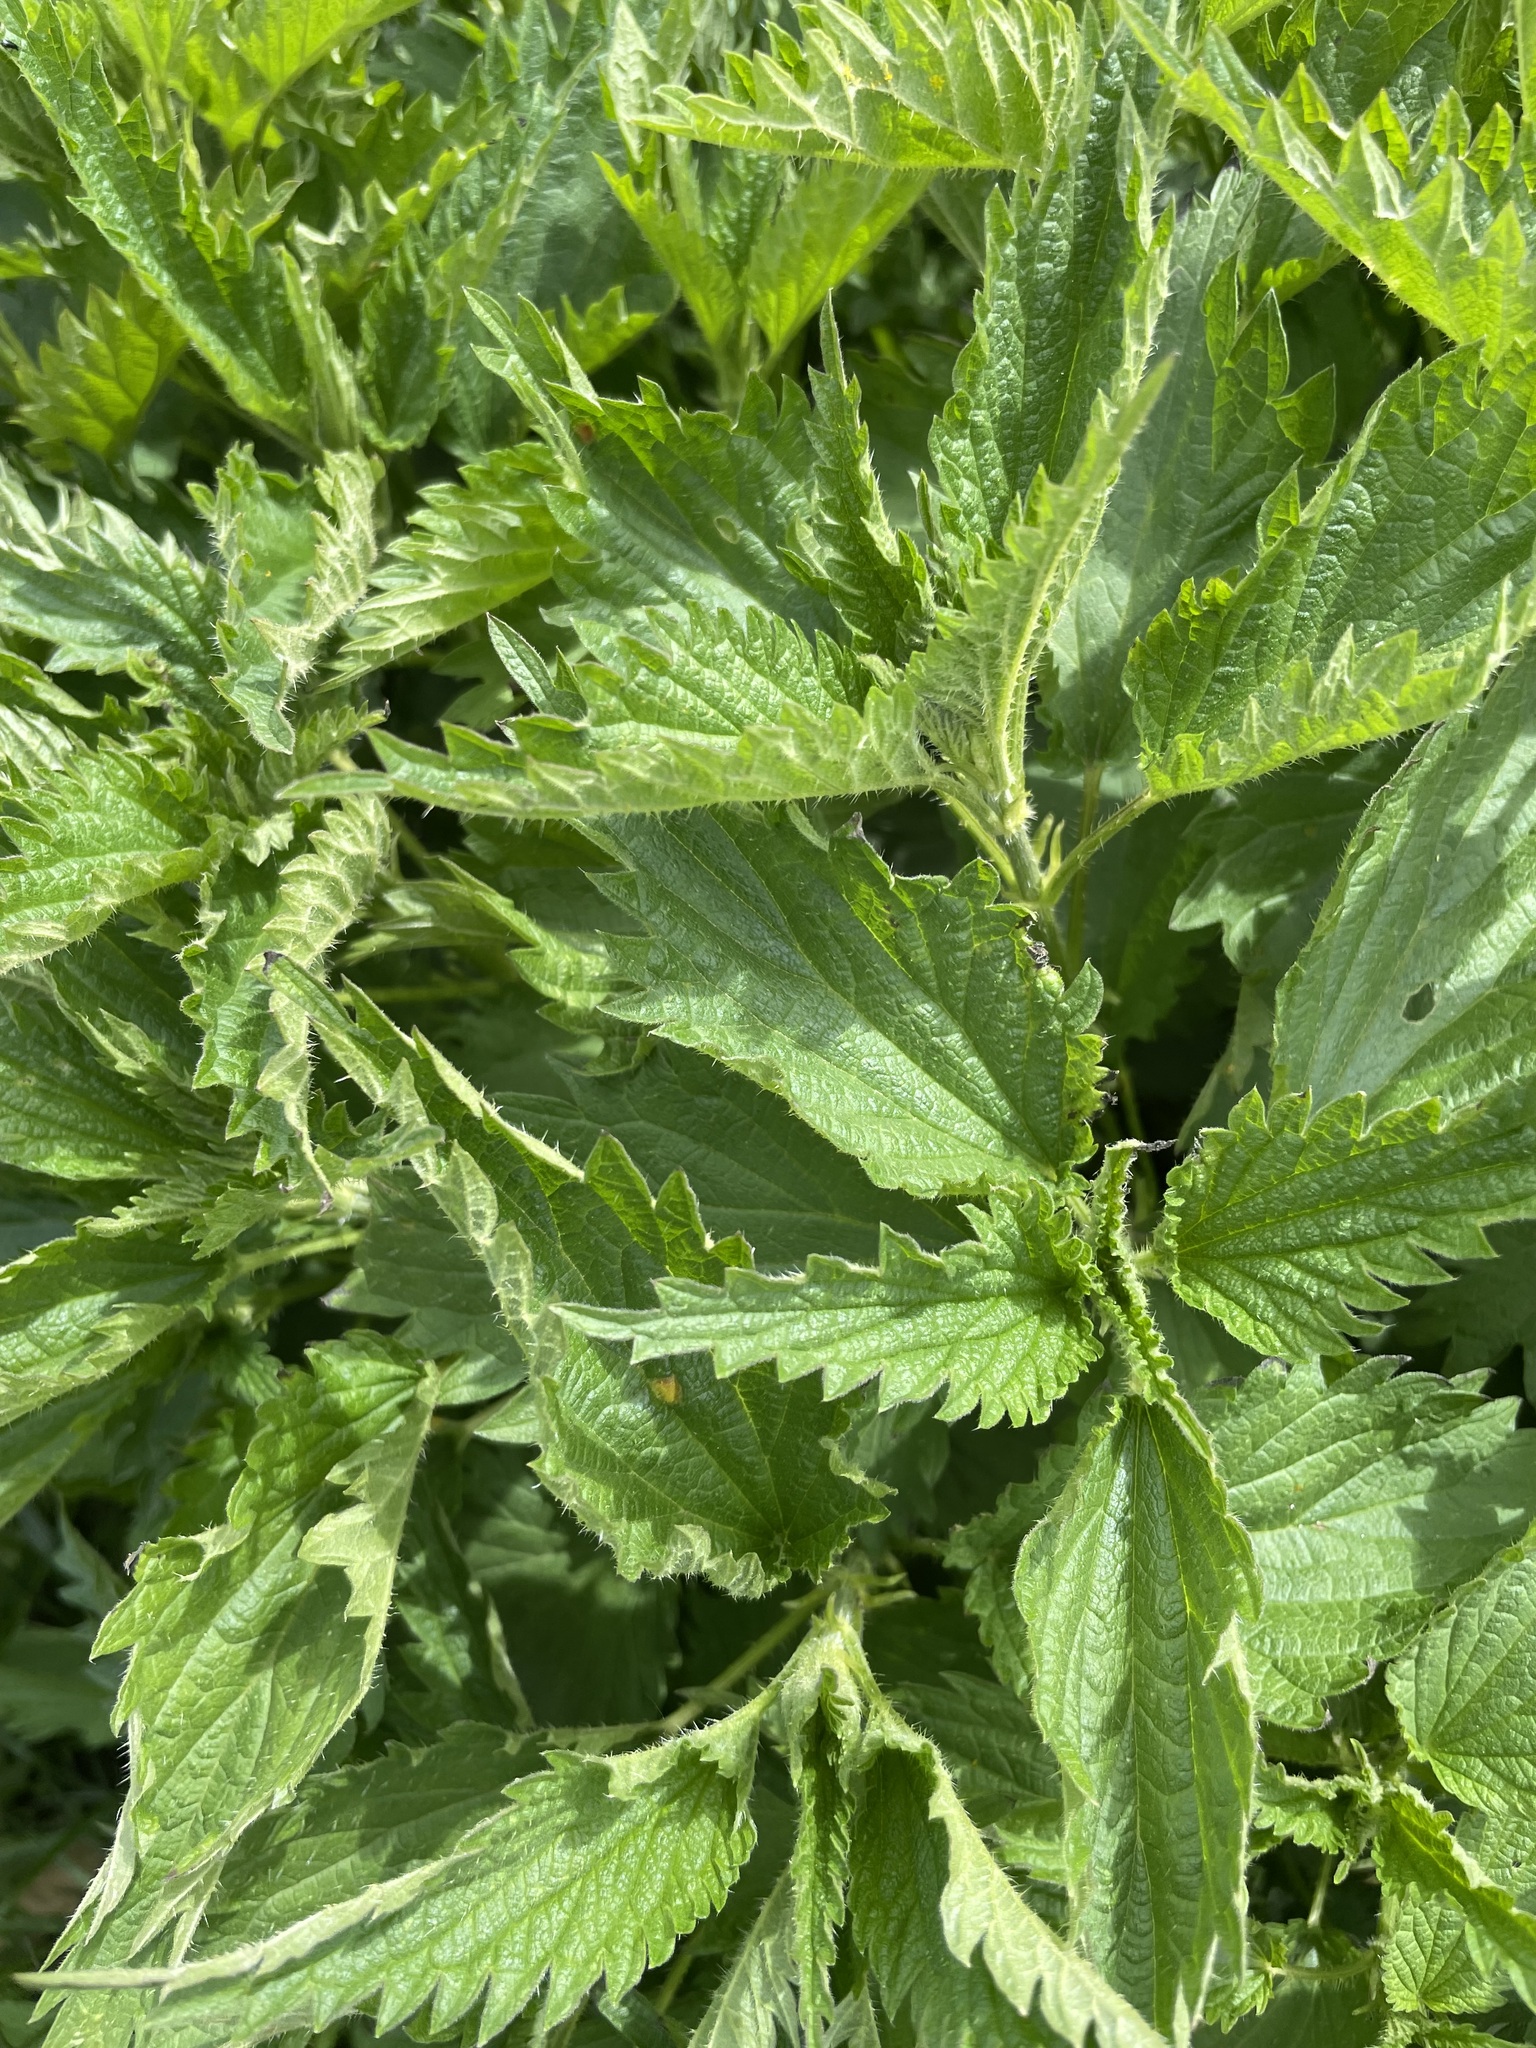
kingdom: Plantae
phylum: Tracheophyta
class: Magnoliopsida
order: Rosales
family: Urticaceae
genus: Urtica
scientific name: Urtica dioica
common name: Common nettle
